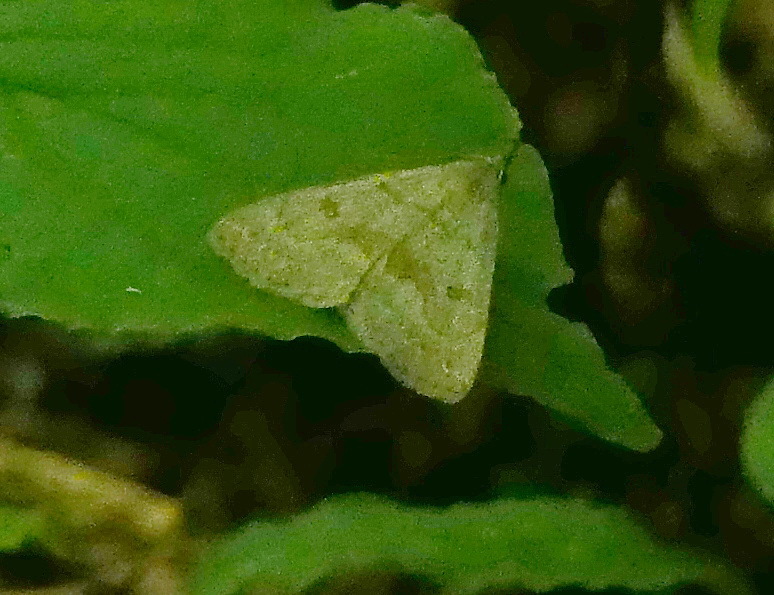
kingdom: Animalia
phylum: Arthropoda
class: Insecta
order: Lepidoptera
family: Erebidae
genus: Macrochilo
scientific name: Macrochilo morbidalis
